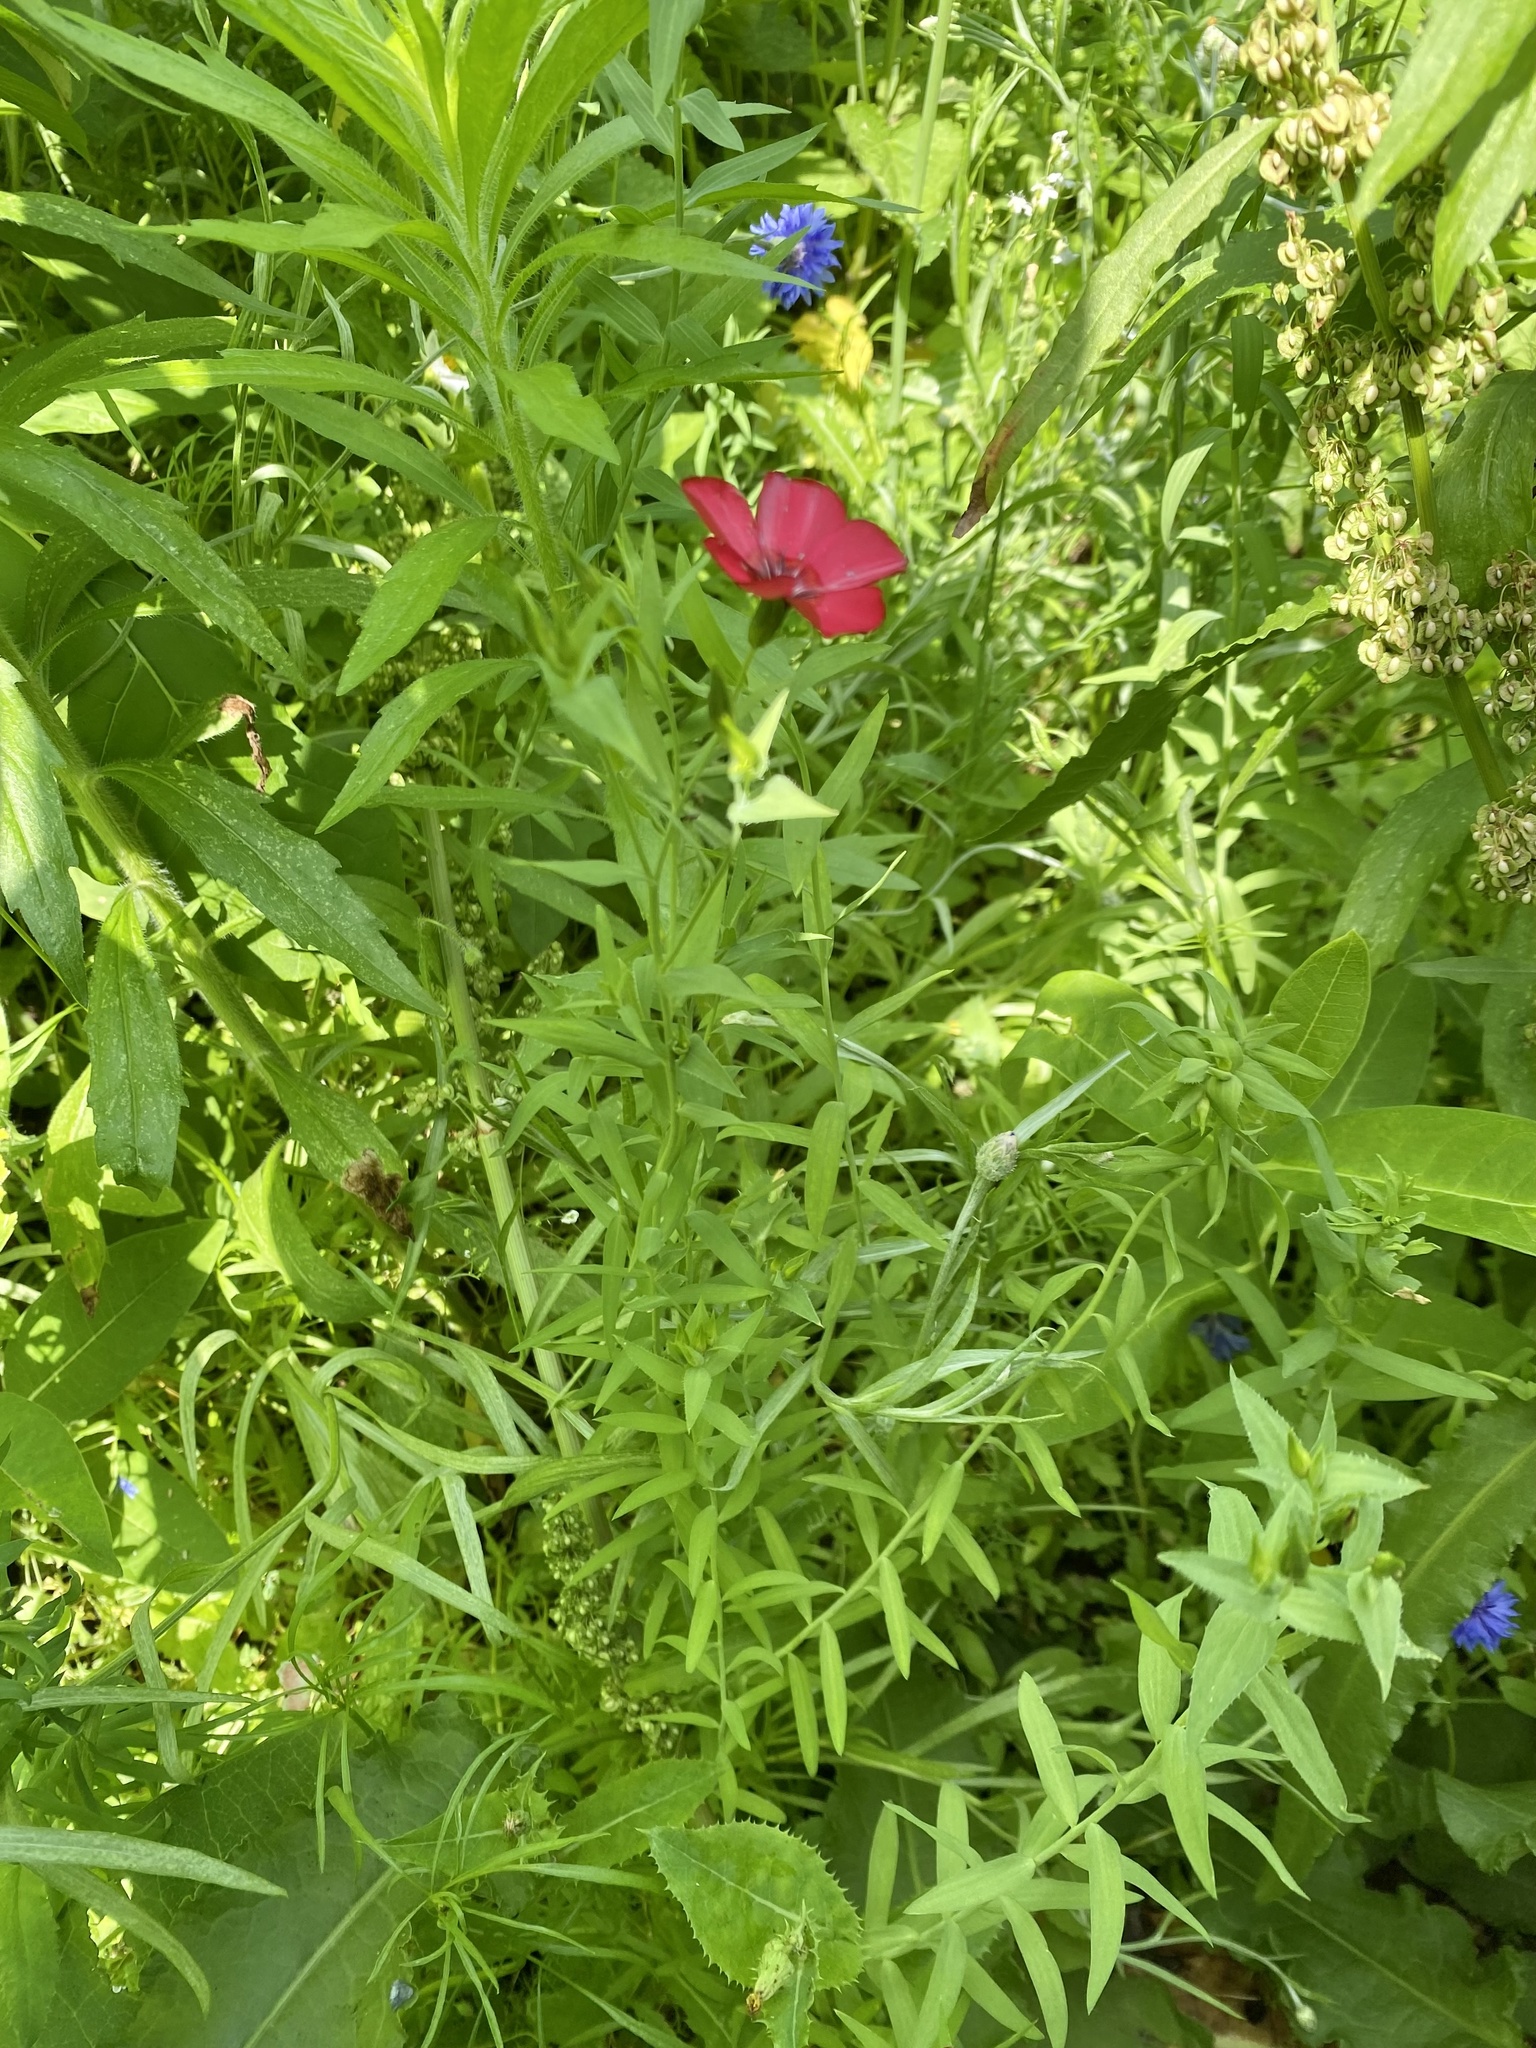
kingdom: Plantae
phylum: Tracheophyta
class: Magnoliopsida
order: Malpighiales
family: Linaceae
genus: Linum
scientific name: Linum grandiflorum
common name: Crimson flax
